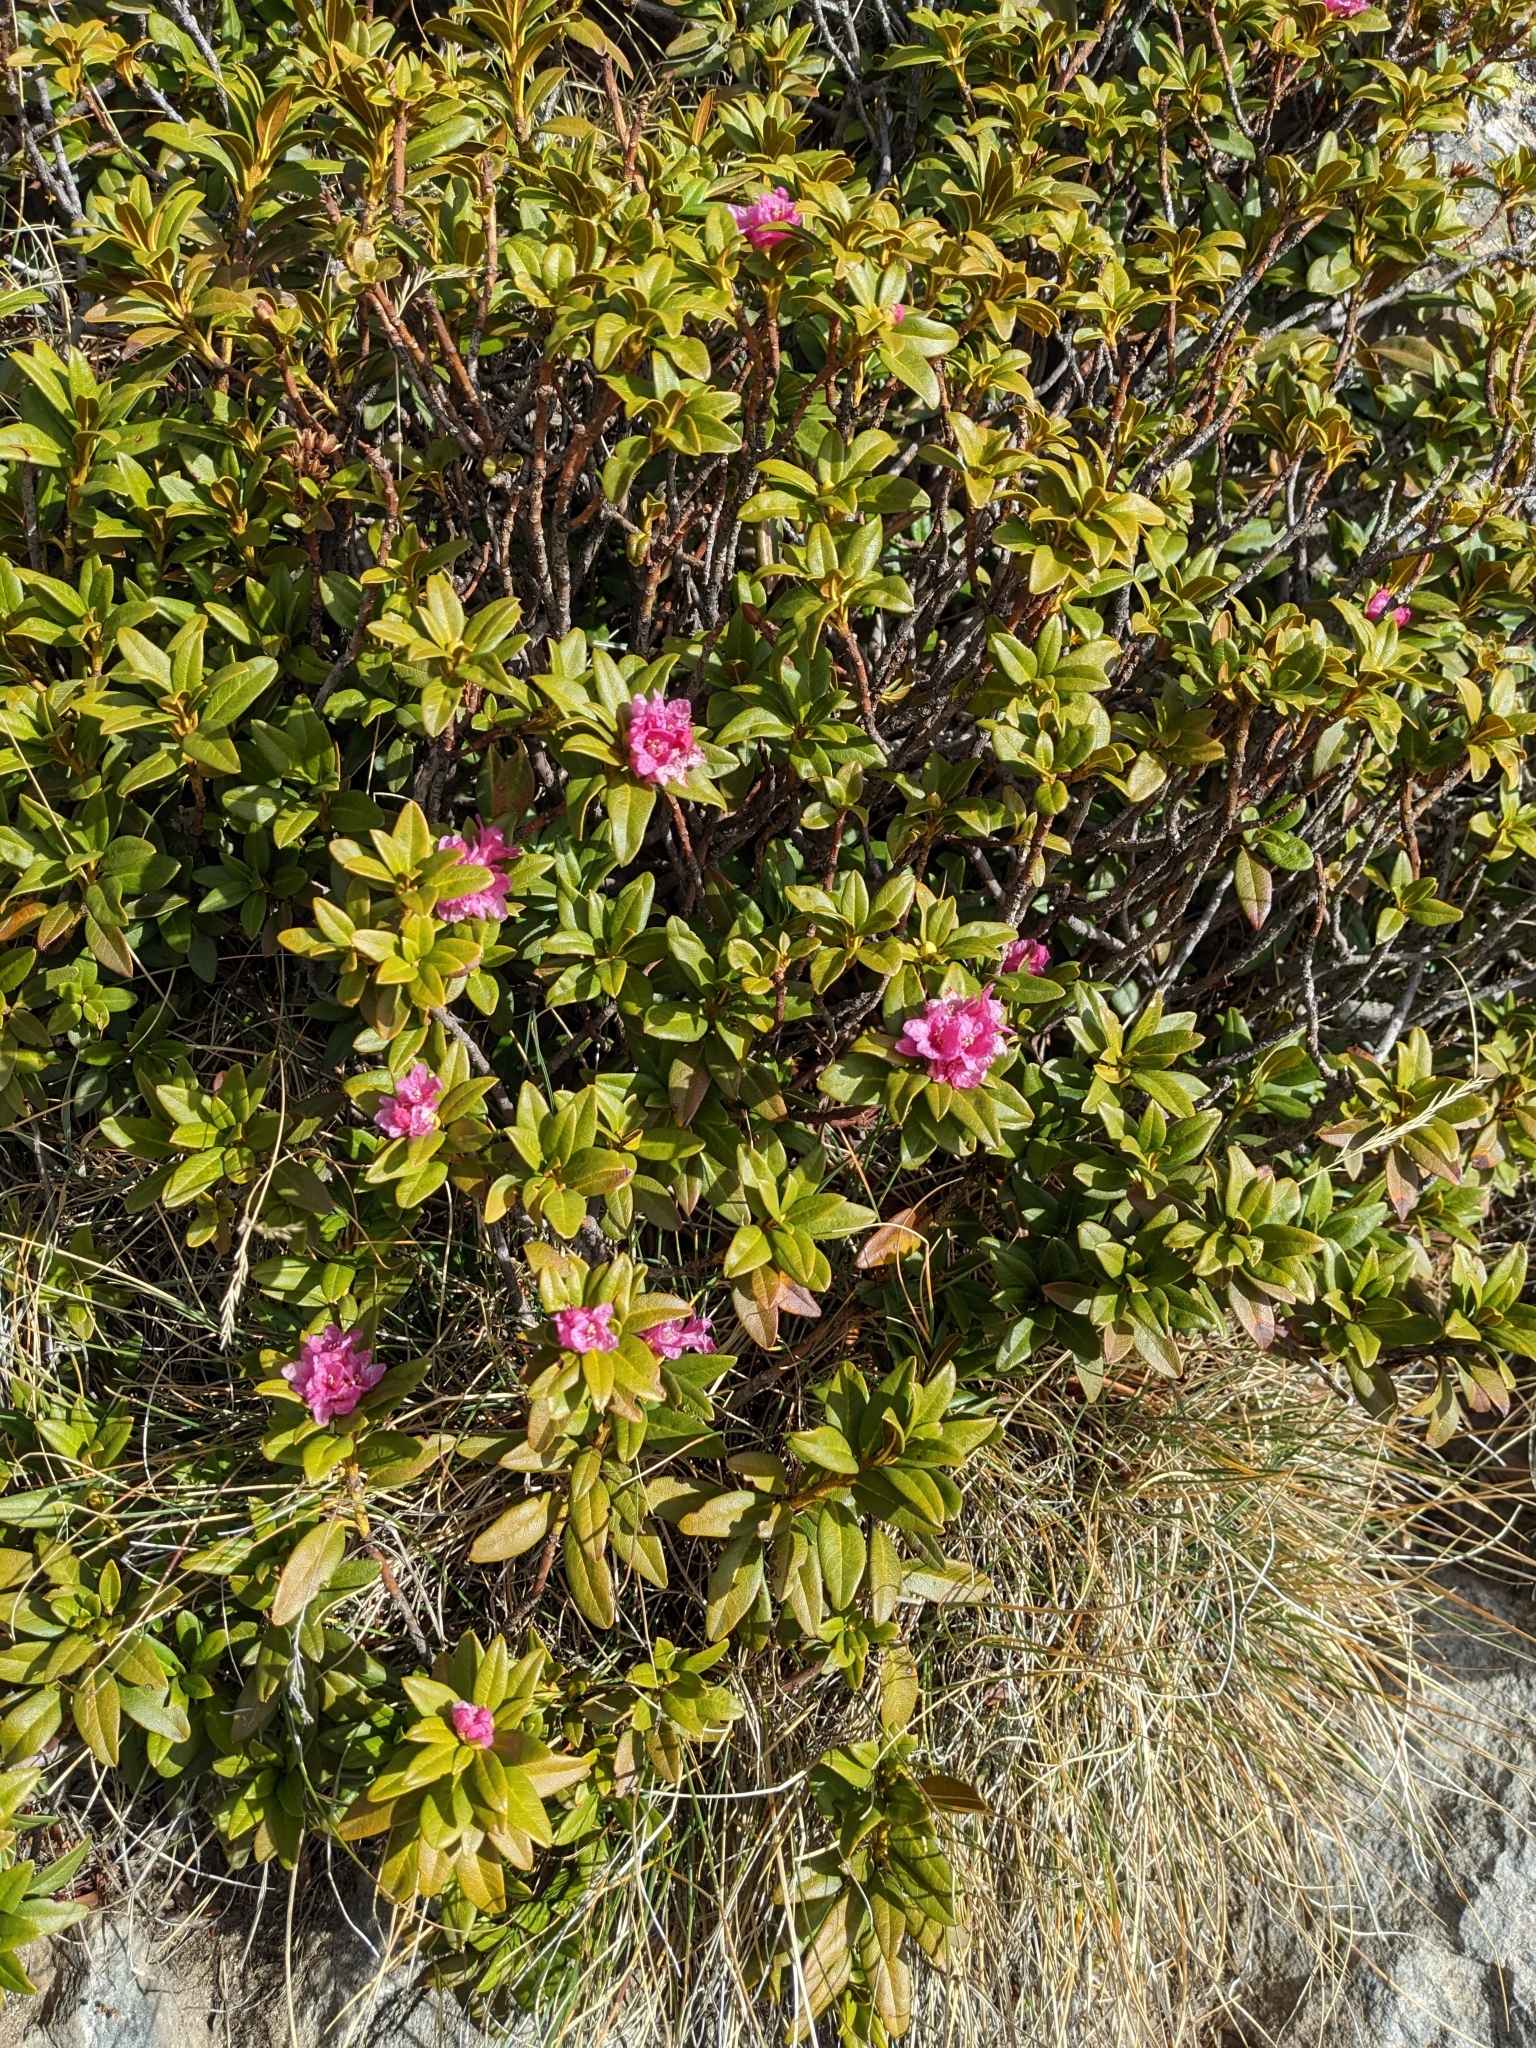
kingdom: Plantae
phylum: Tracheophyta
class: Magnoliopsida
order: Ericales
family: Ericaceae
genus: Rhododendron
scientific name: Rhododendron ferrugineum
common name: Alpenrose
